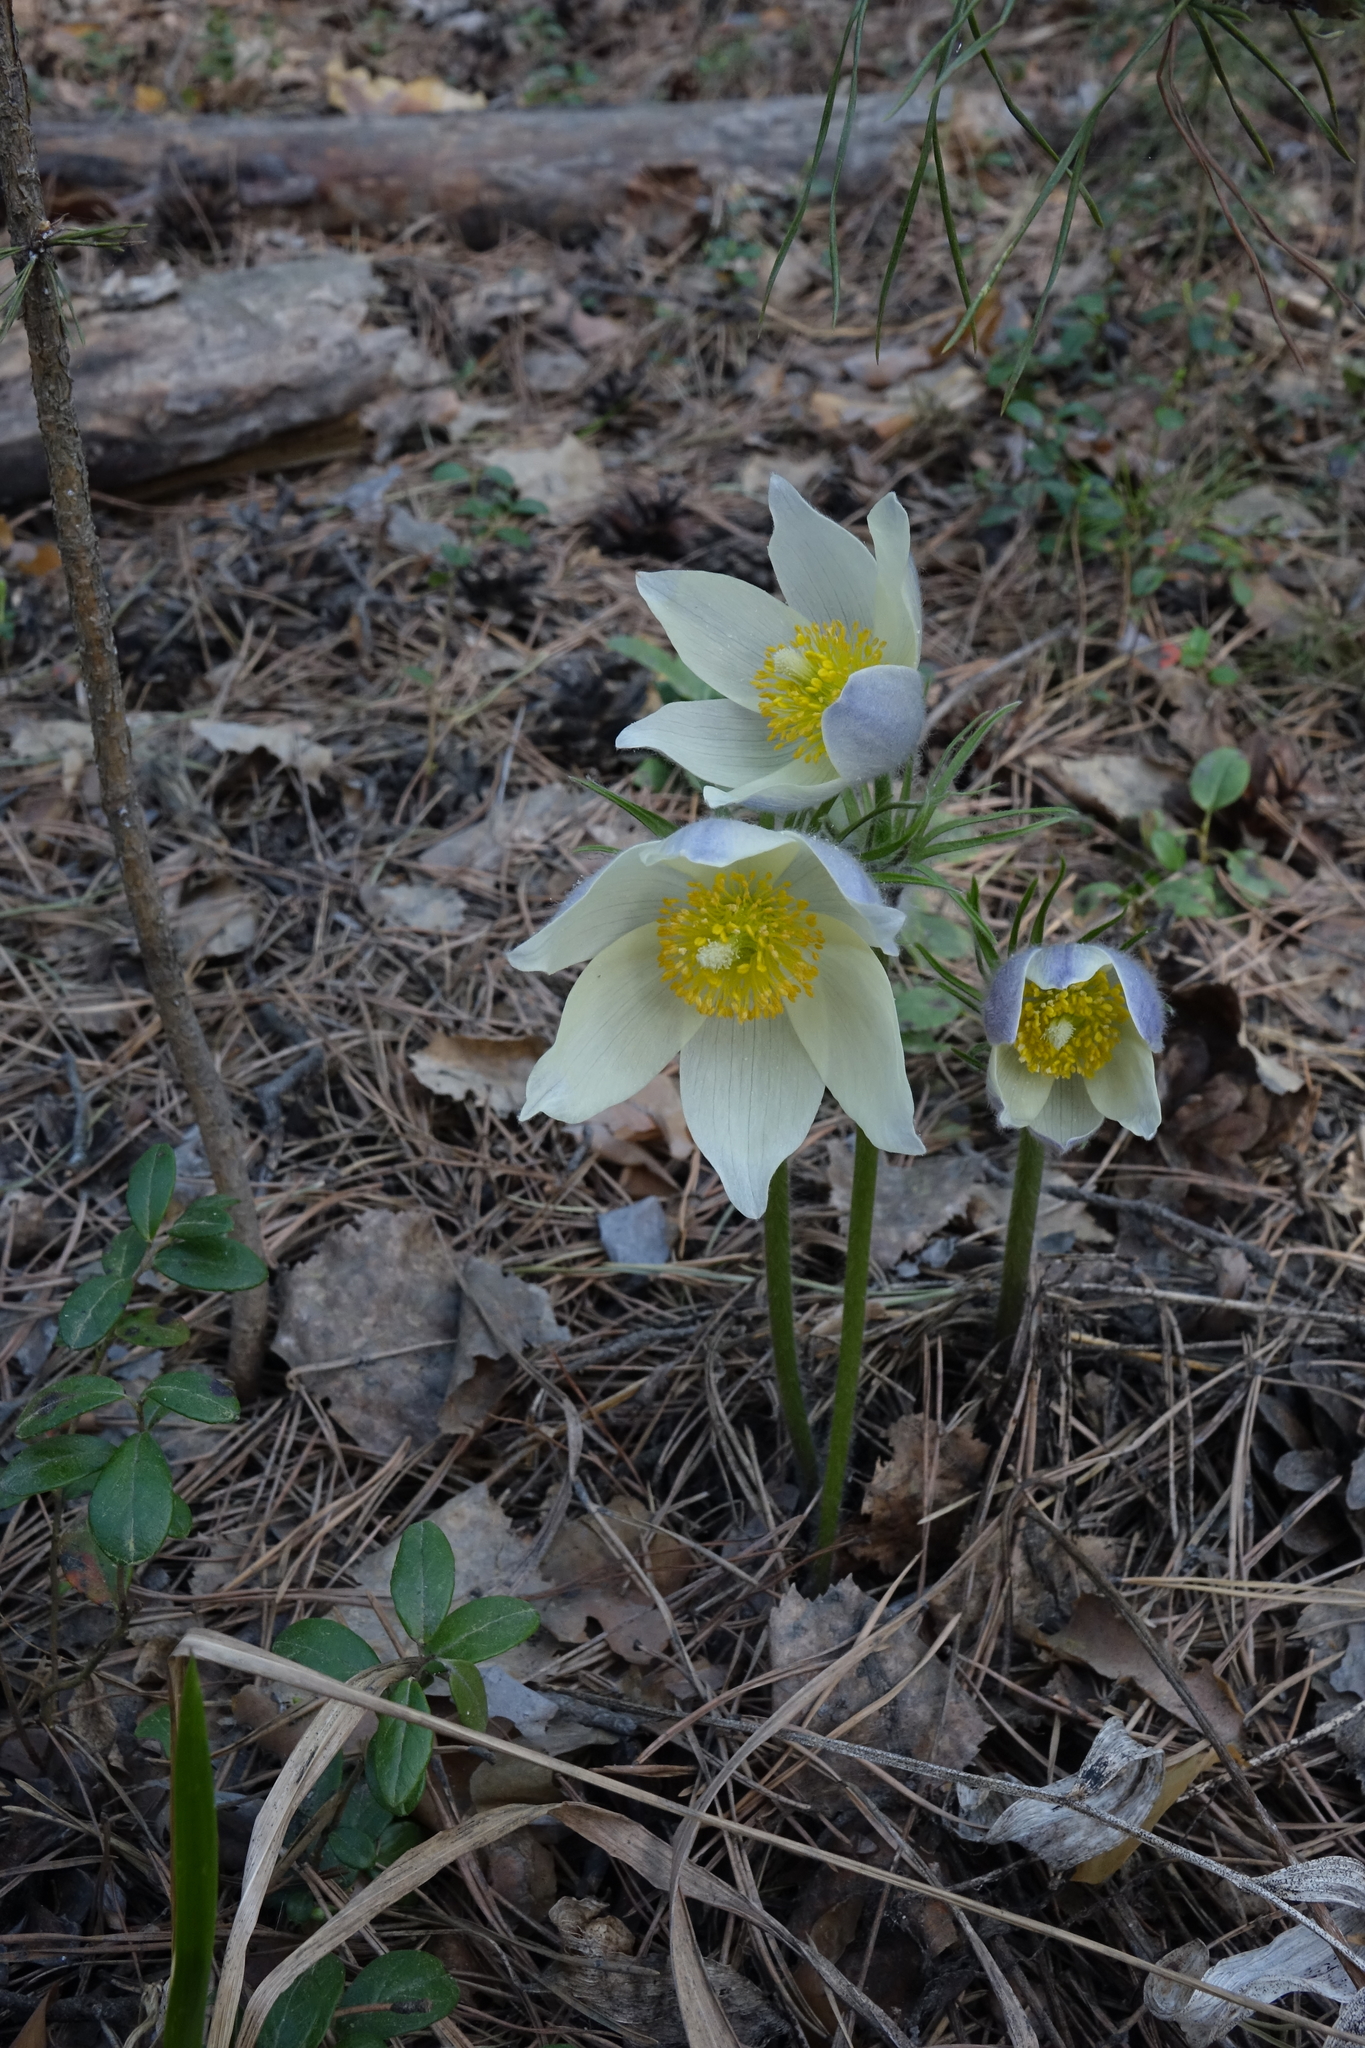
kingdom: Plantae
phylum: Tracheophyta
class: Magnoliopsida
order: Ranunculales
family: Ranunculaceae
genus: Pulsatilla
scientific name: Pulsatilla patens
